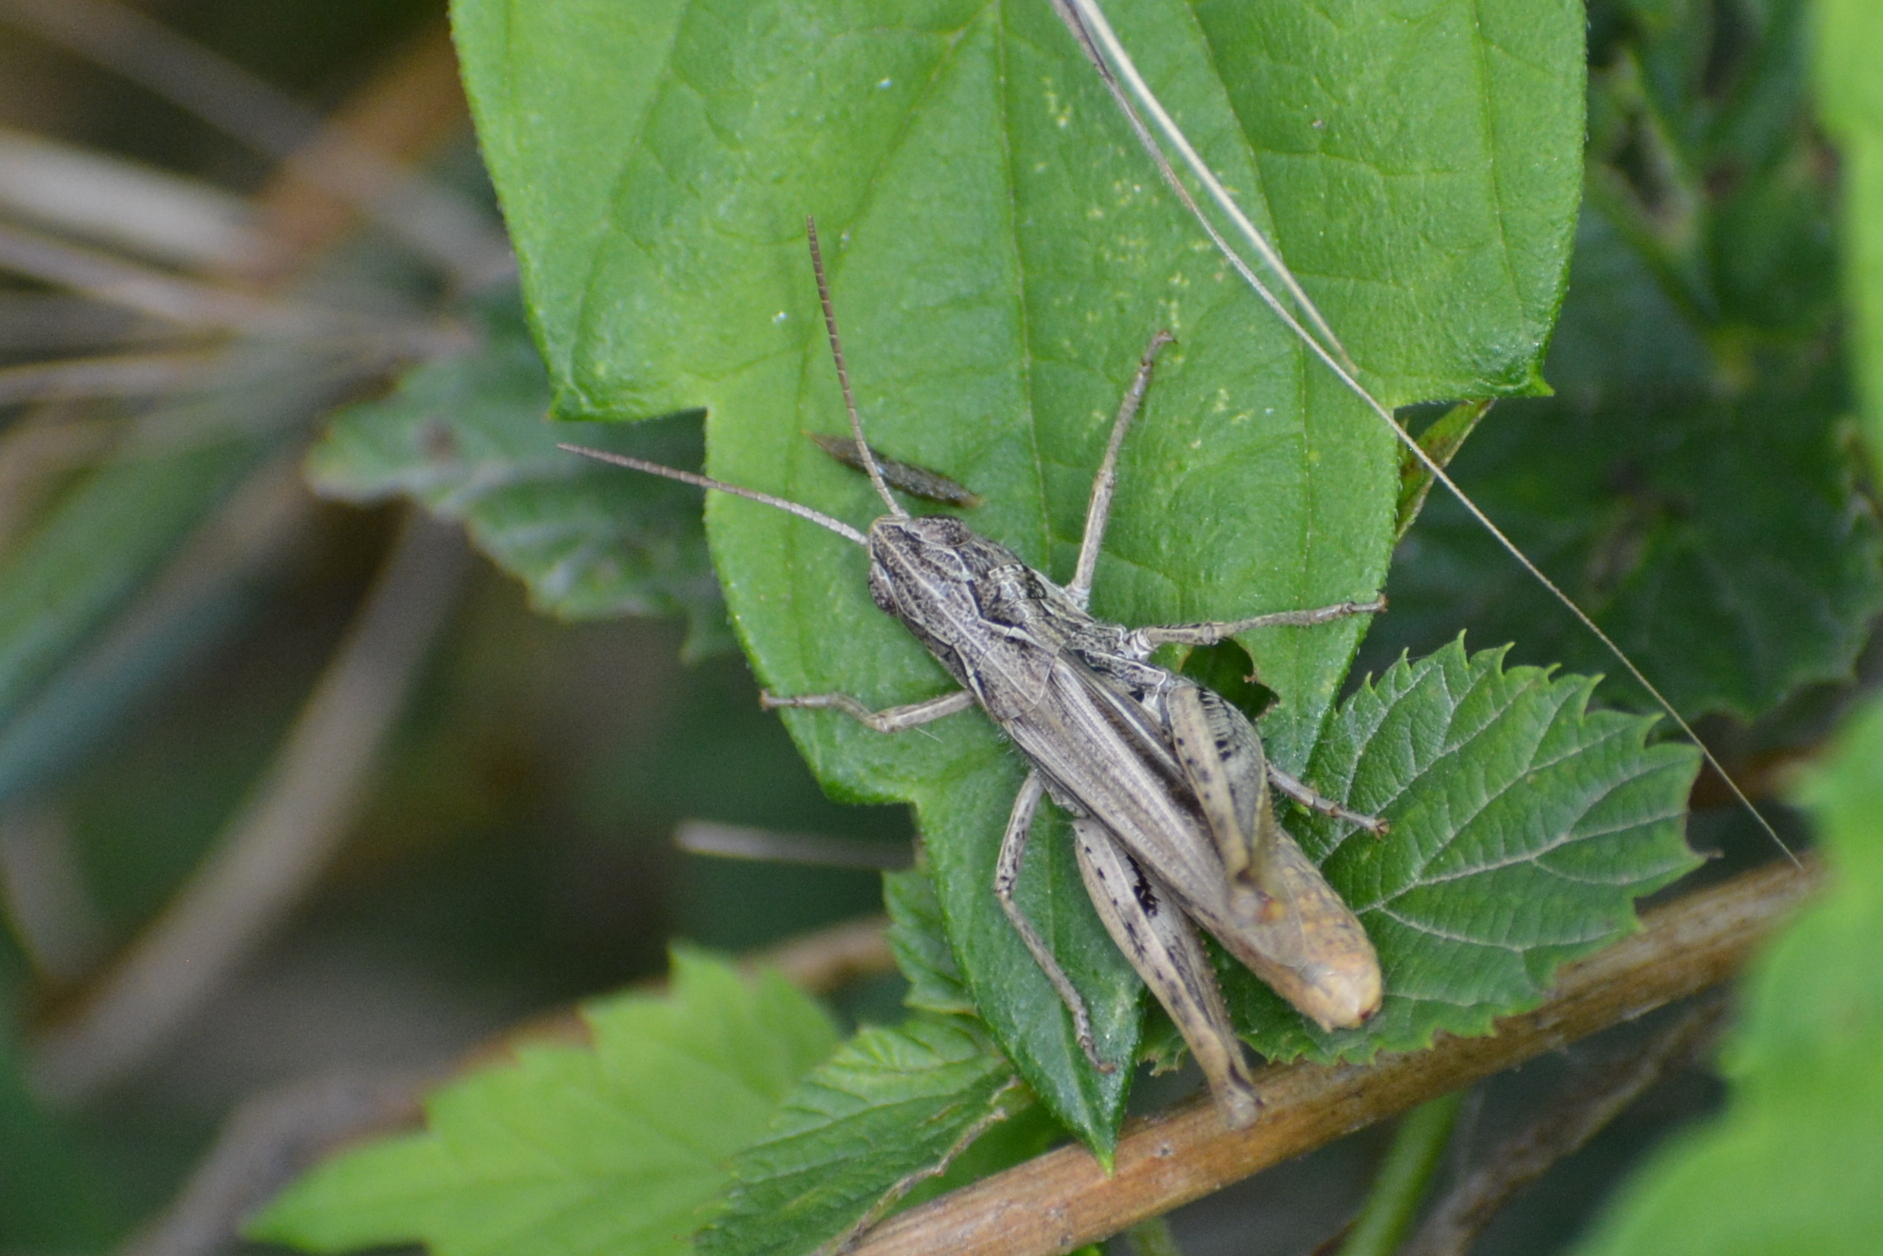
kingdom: Animalia
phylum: Arthropoda
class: Insecta
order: Orthoptera
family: Acrididae
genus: Chorthippus
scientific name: Chorthippus apricarius
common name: Upland field grasshopper
